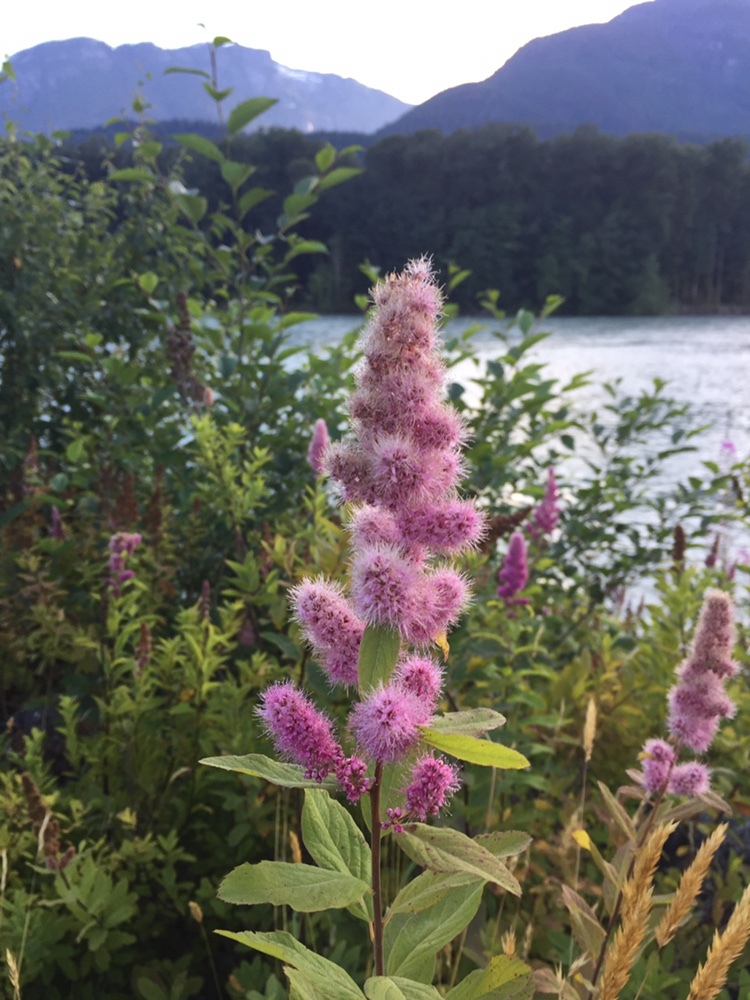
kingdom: Plantae
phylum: Tracheophyta
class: Magnoliopsida
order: Rosales
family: Rosaceae
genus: Spiraea
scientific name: Spiraea douglasii
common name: Steeplebush
